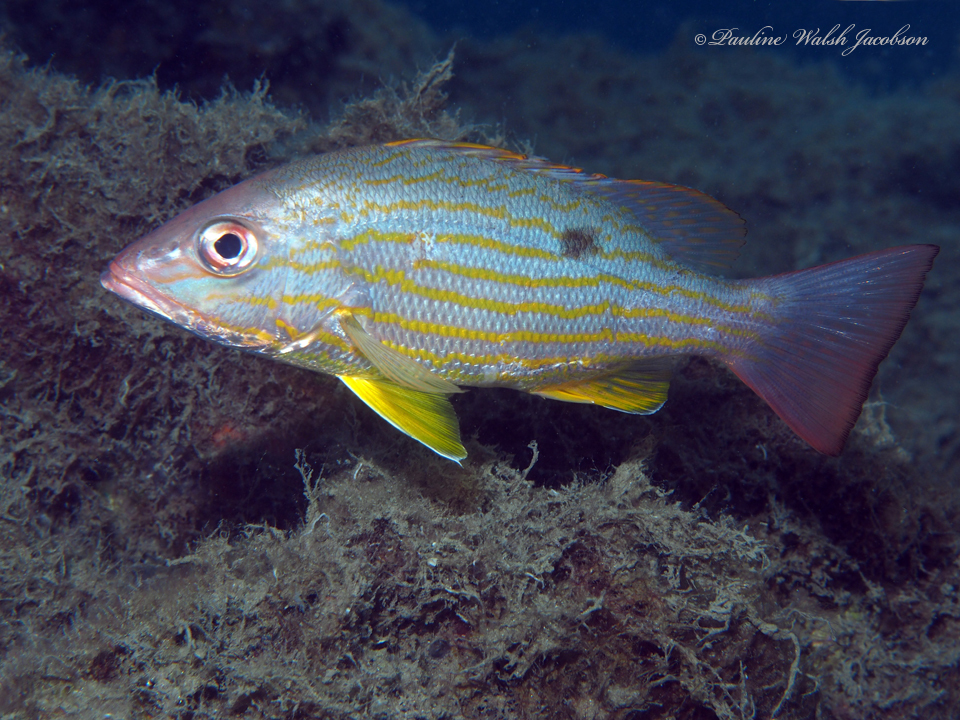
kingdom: Animalia
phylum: Chordata
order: Perciformes
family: Lutjanidae
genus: Lutjanus
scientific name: Lutjanus synagris
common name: Lane snapper
